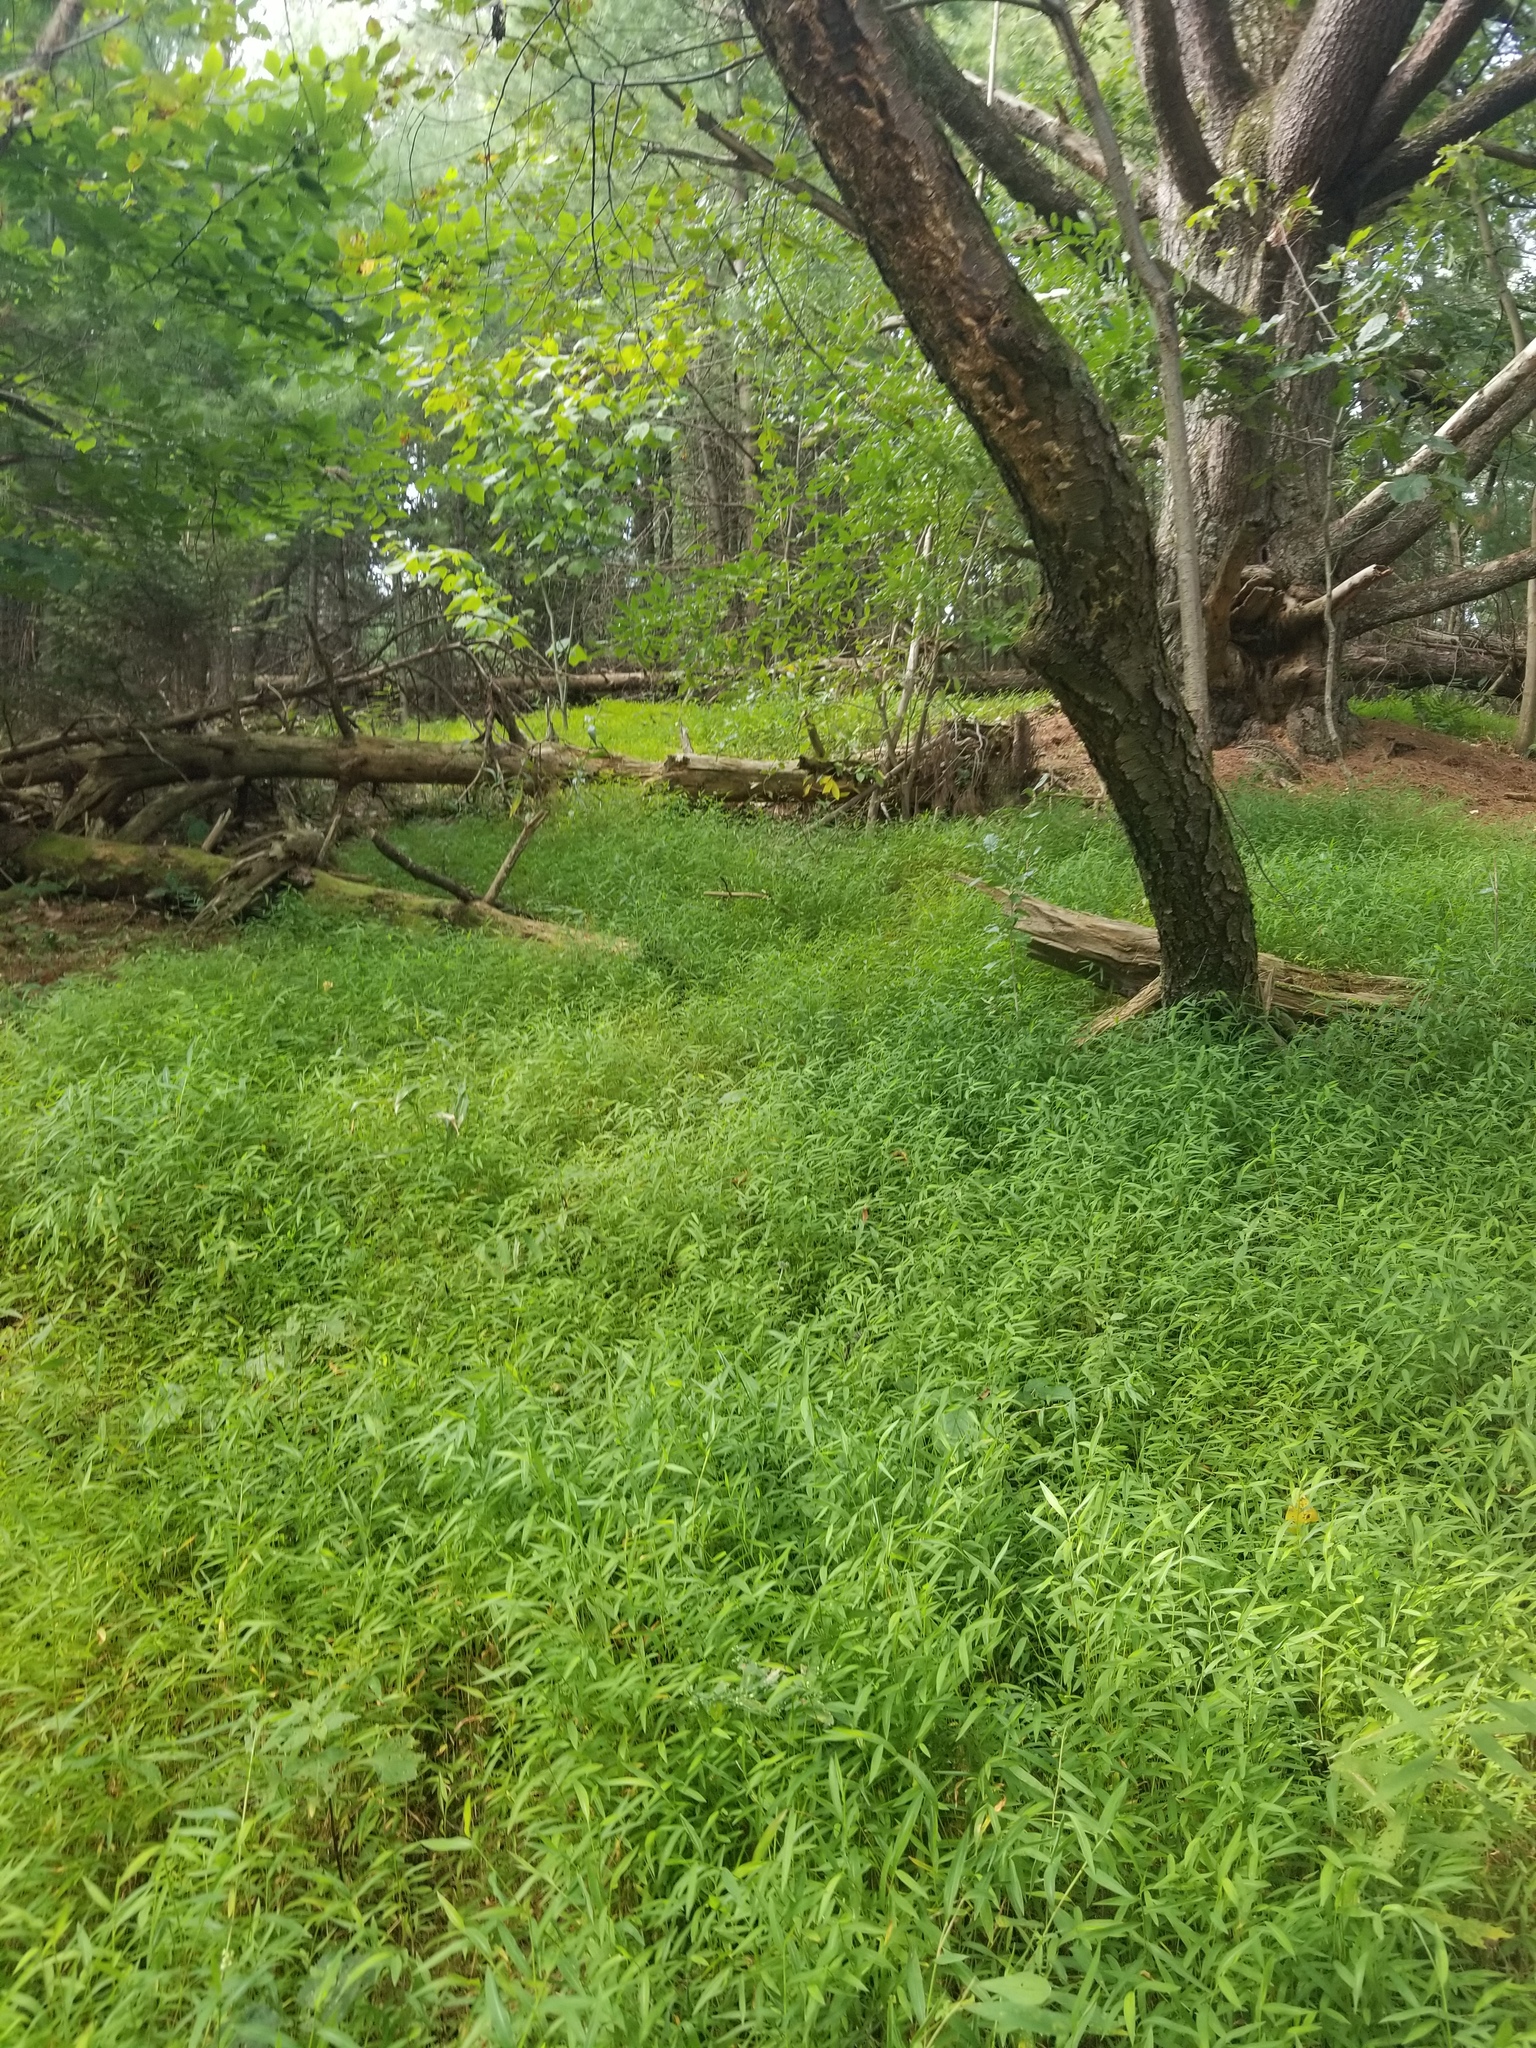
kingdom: Plantae
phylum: Tracheophyta
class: Liliopsida
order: Poales
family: Poaceae
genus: Microstegium
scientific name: Microstegium vimineum
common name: Japanese stiltgrass
